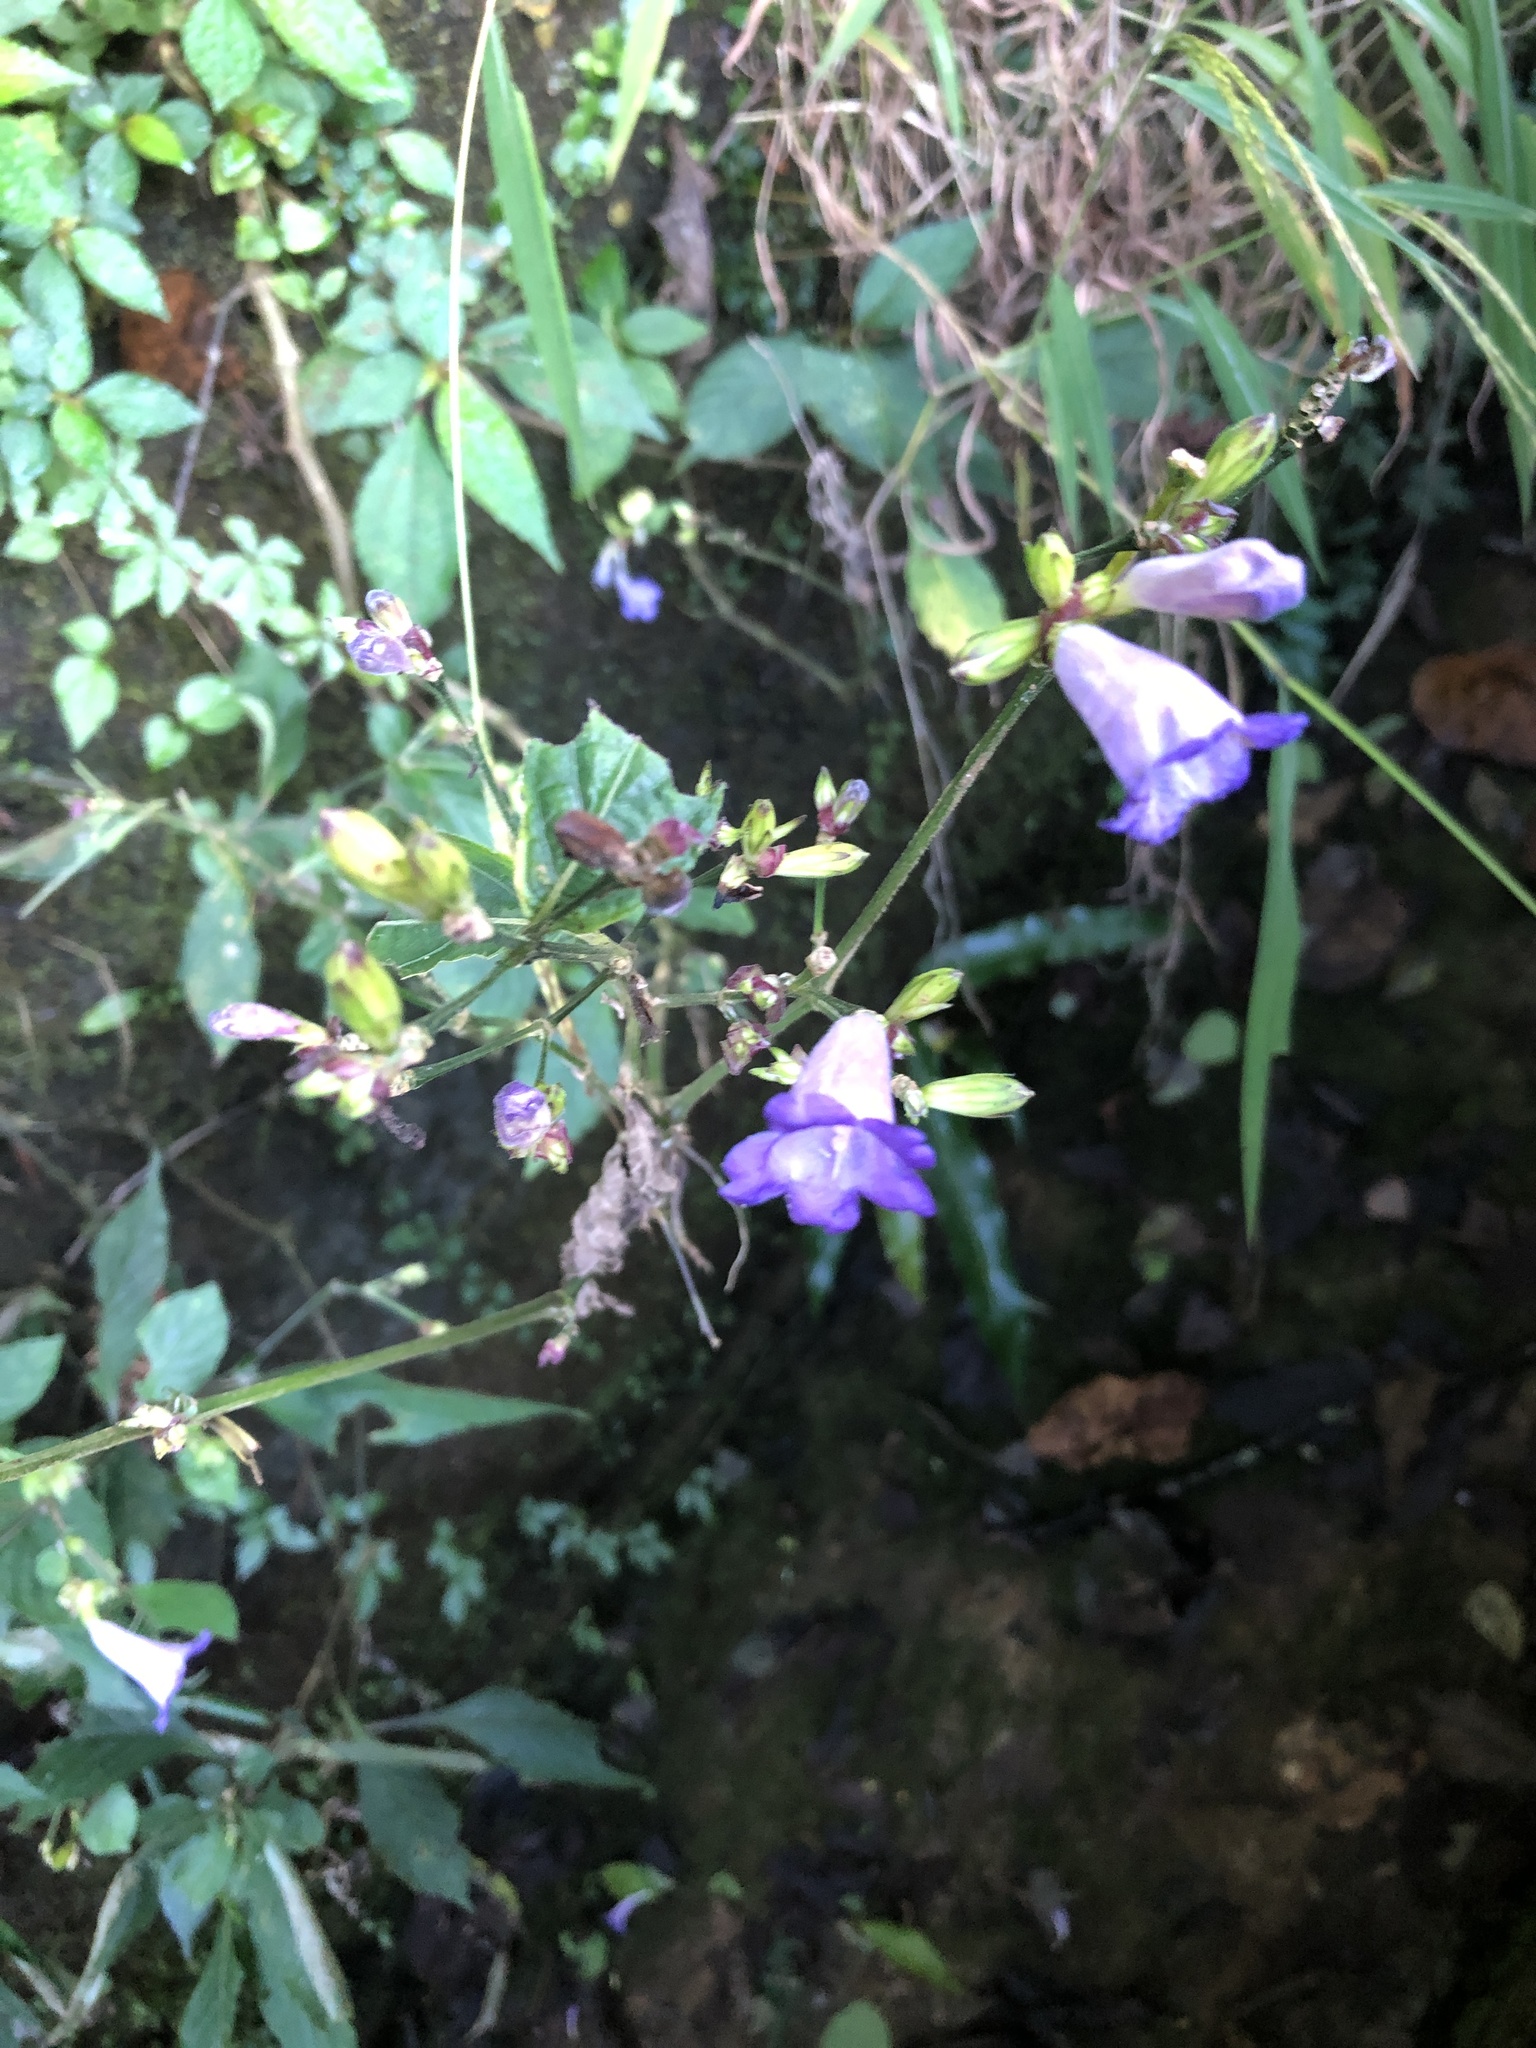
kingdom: Plantae
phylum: Tracheophyta
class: Magnoliopsida
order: Lamiales
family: Acanthaceae
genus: Strobilanthes
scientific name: Strobilanthes formosana
